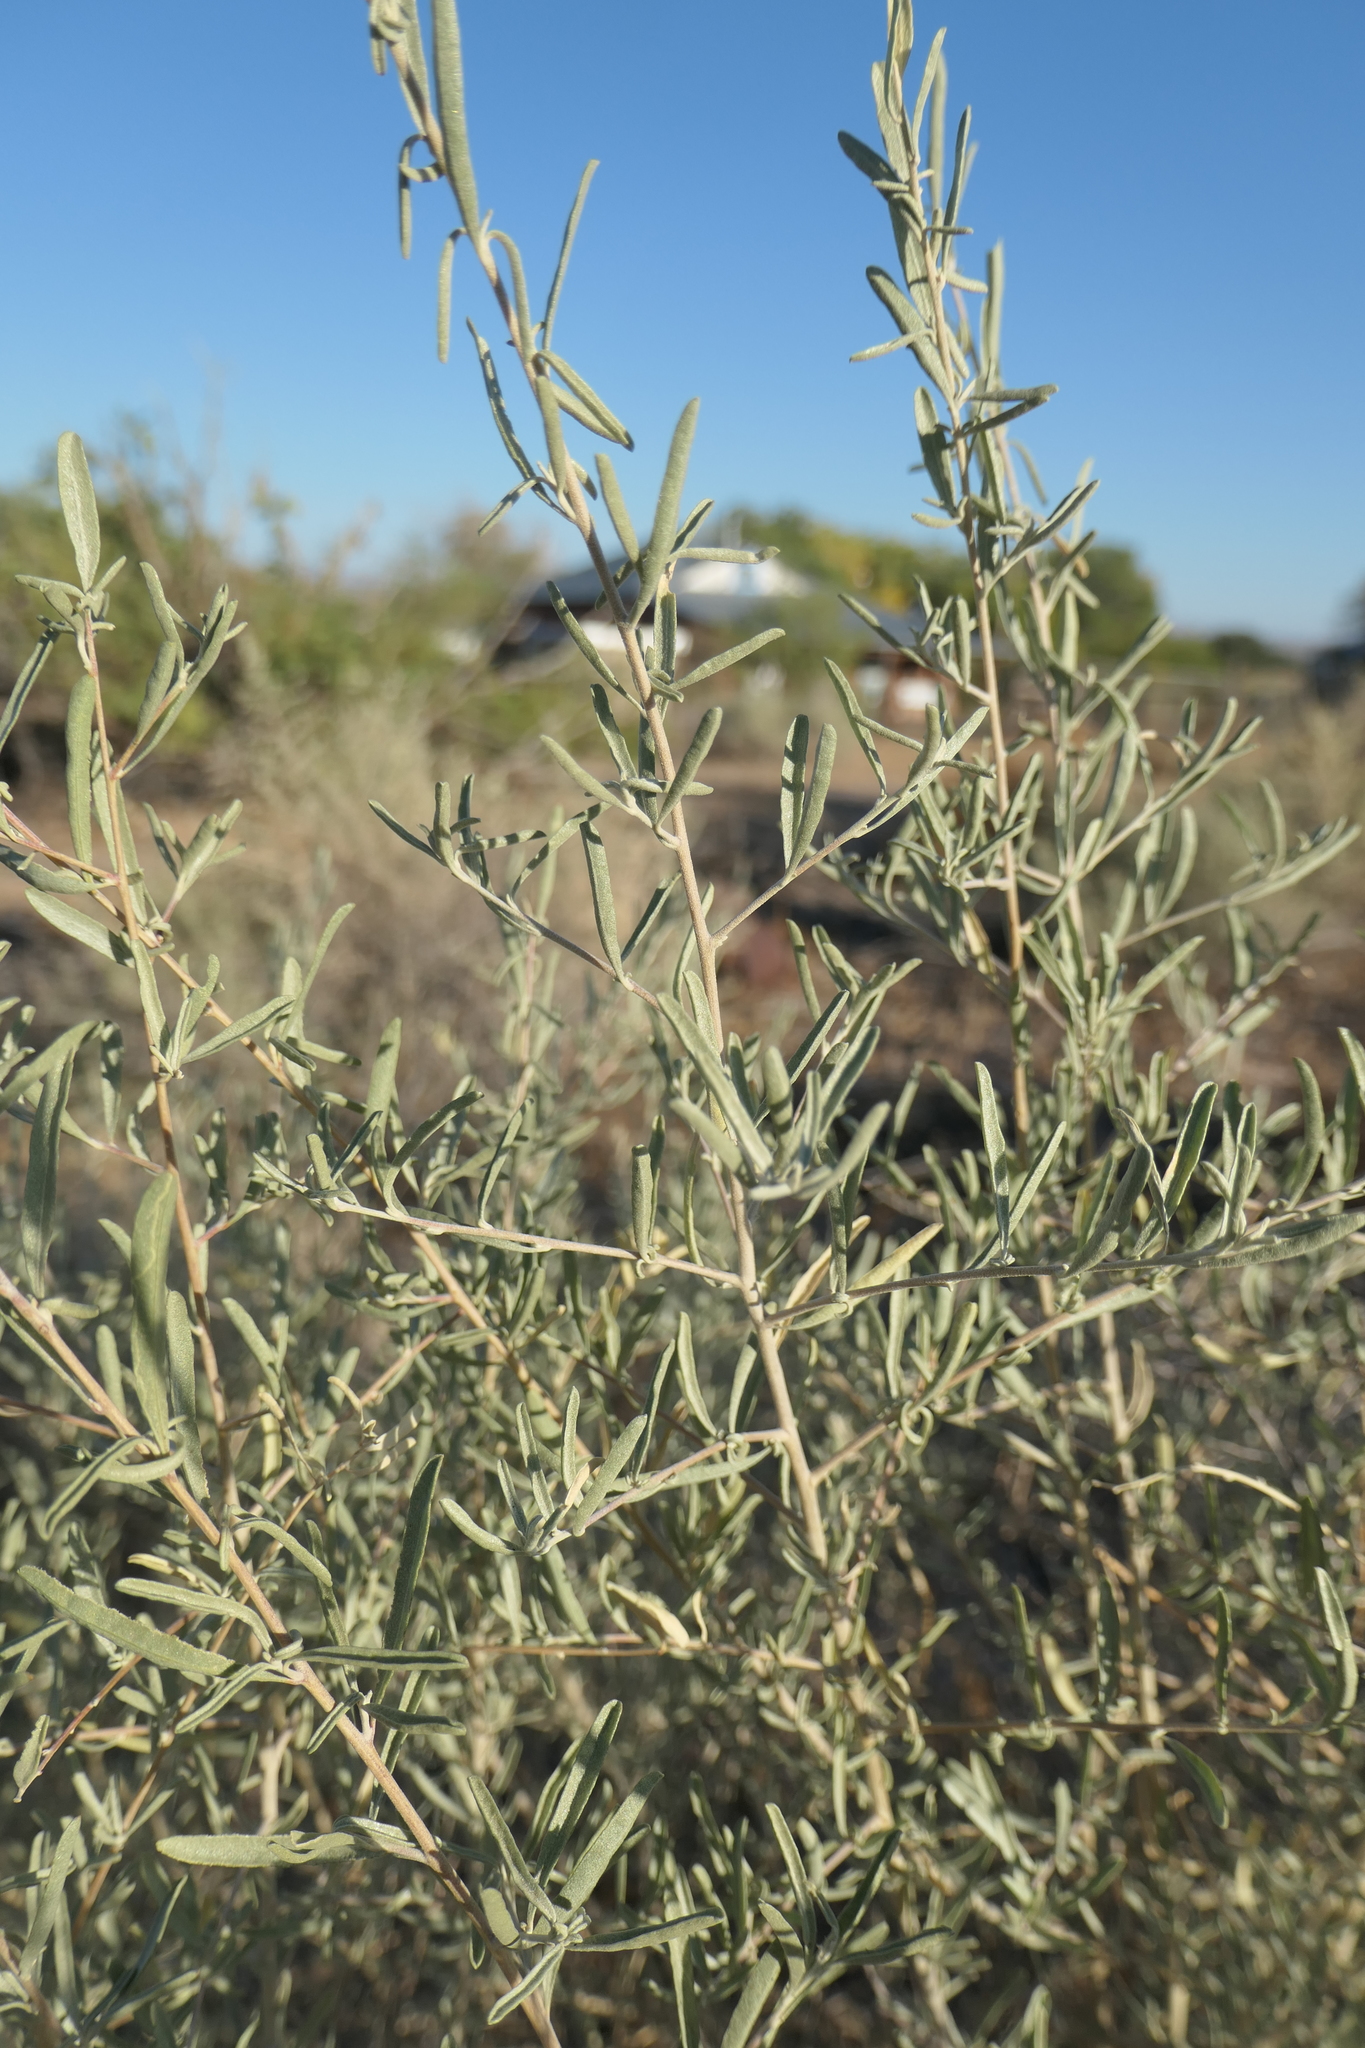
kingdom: Plantae
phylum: Tracheophyta
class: Magnoliopsida
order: Caryophyllales
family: Amaranthaceae
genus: Atriplex
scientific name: Atriplex canescens
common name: Four-wing saltbush
